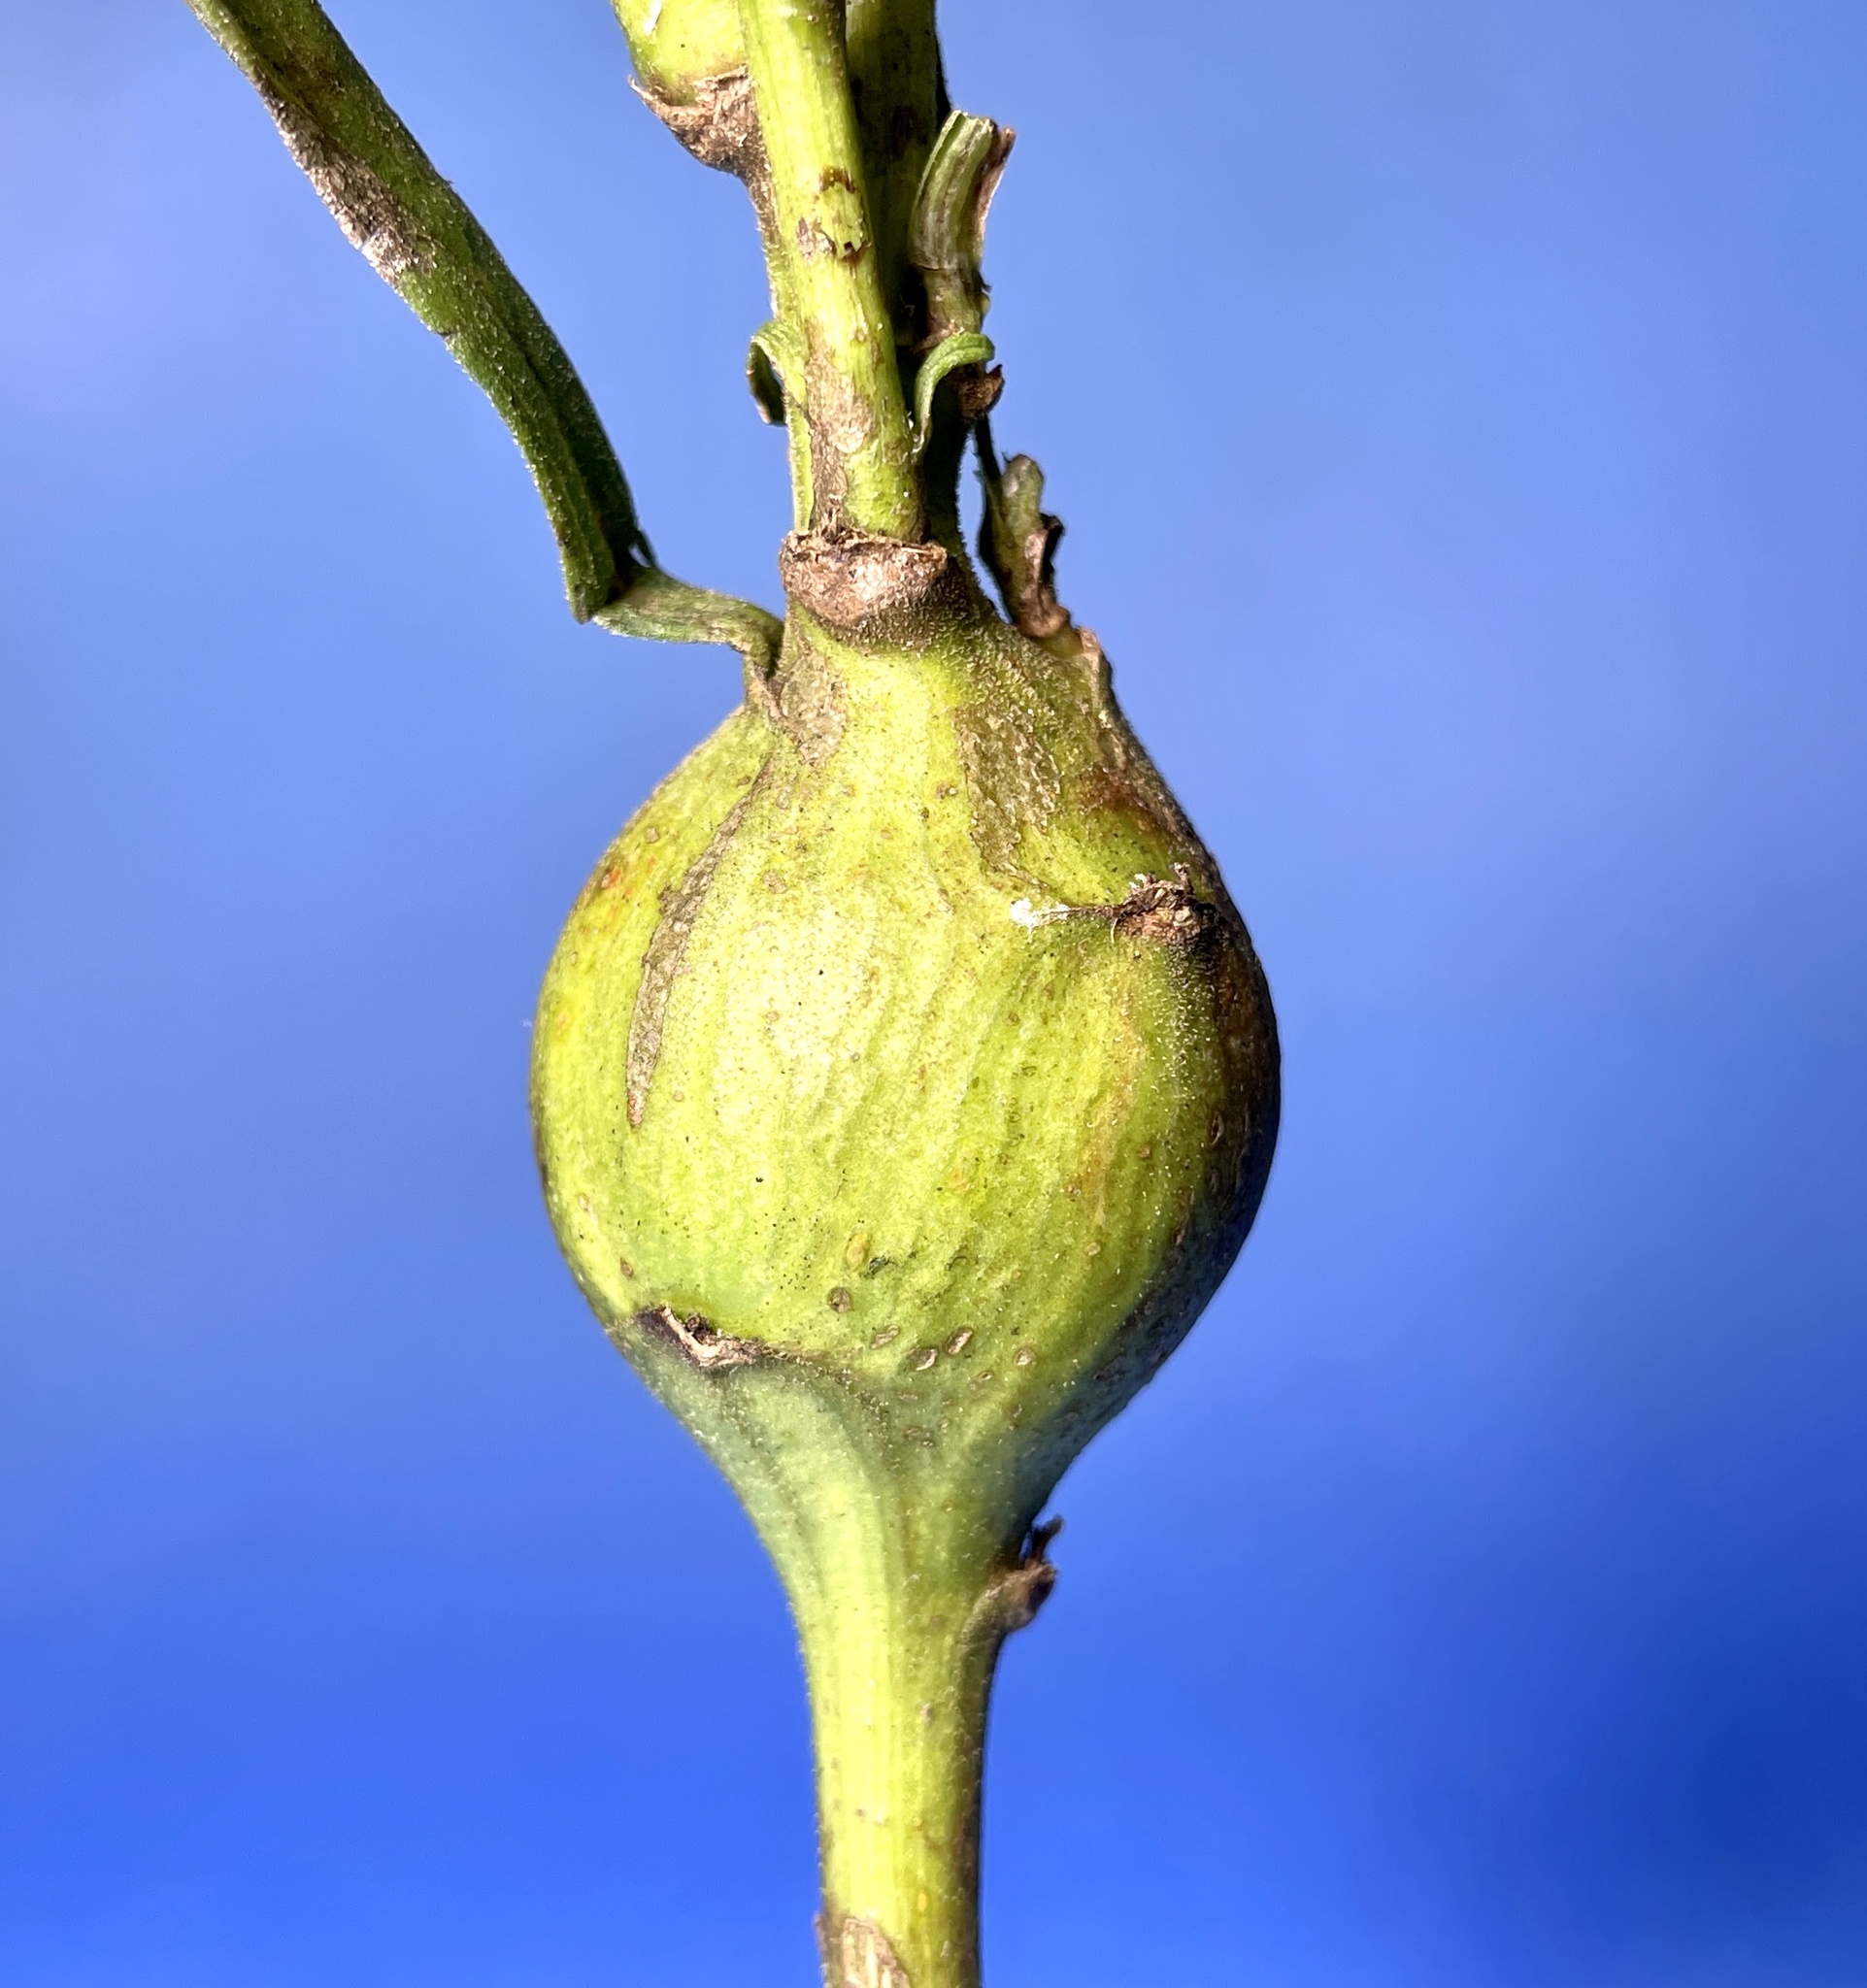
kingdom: Animalia
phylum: Arthropoda
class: Insecta
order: Diptera
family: Tephritidae
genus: Eurosta
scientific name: Eurosta solidaginis
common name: Goldenrod gall fly
